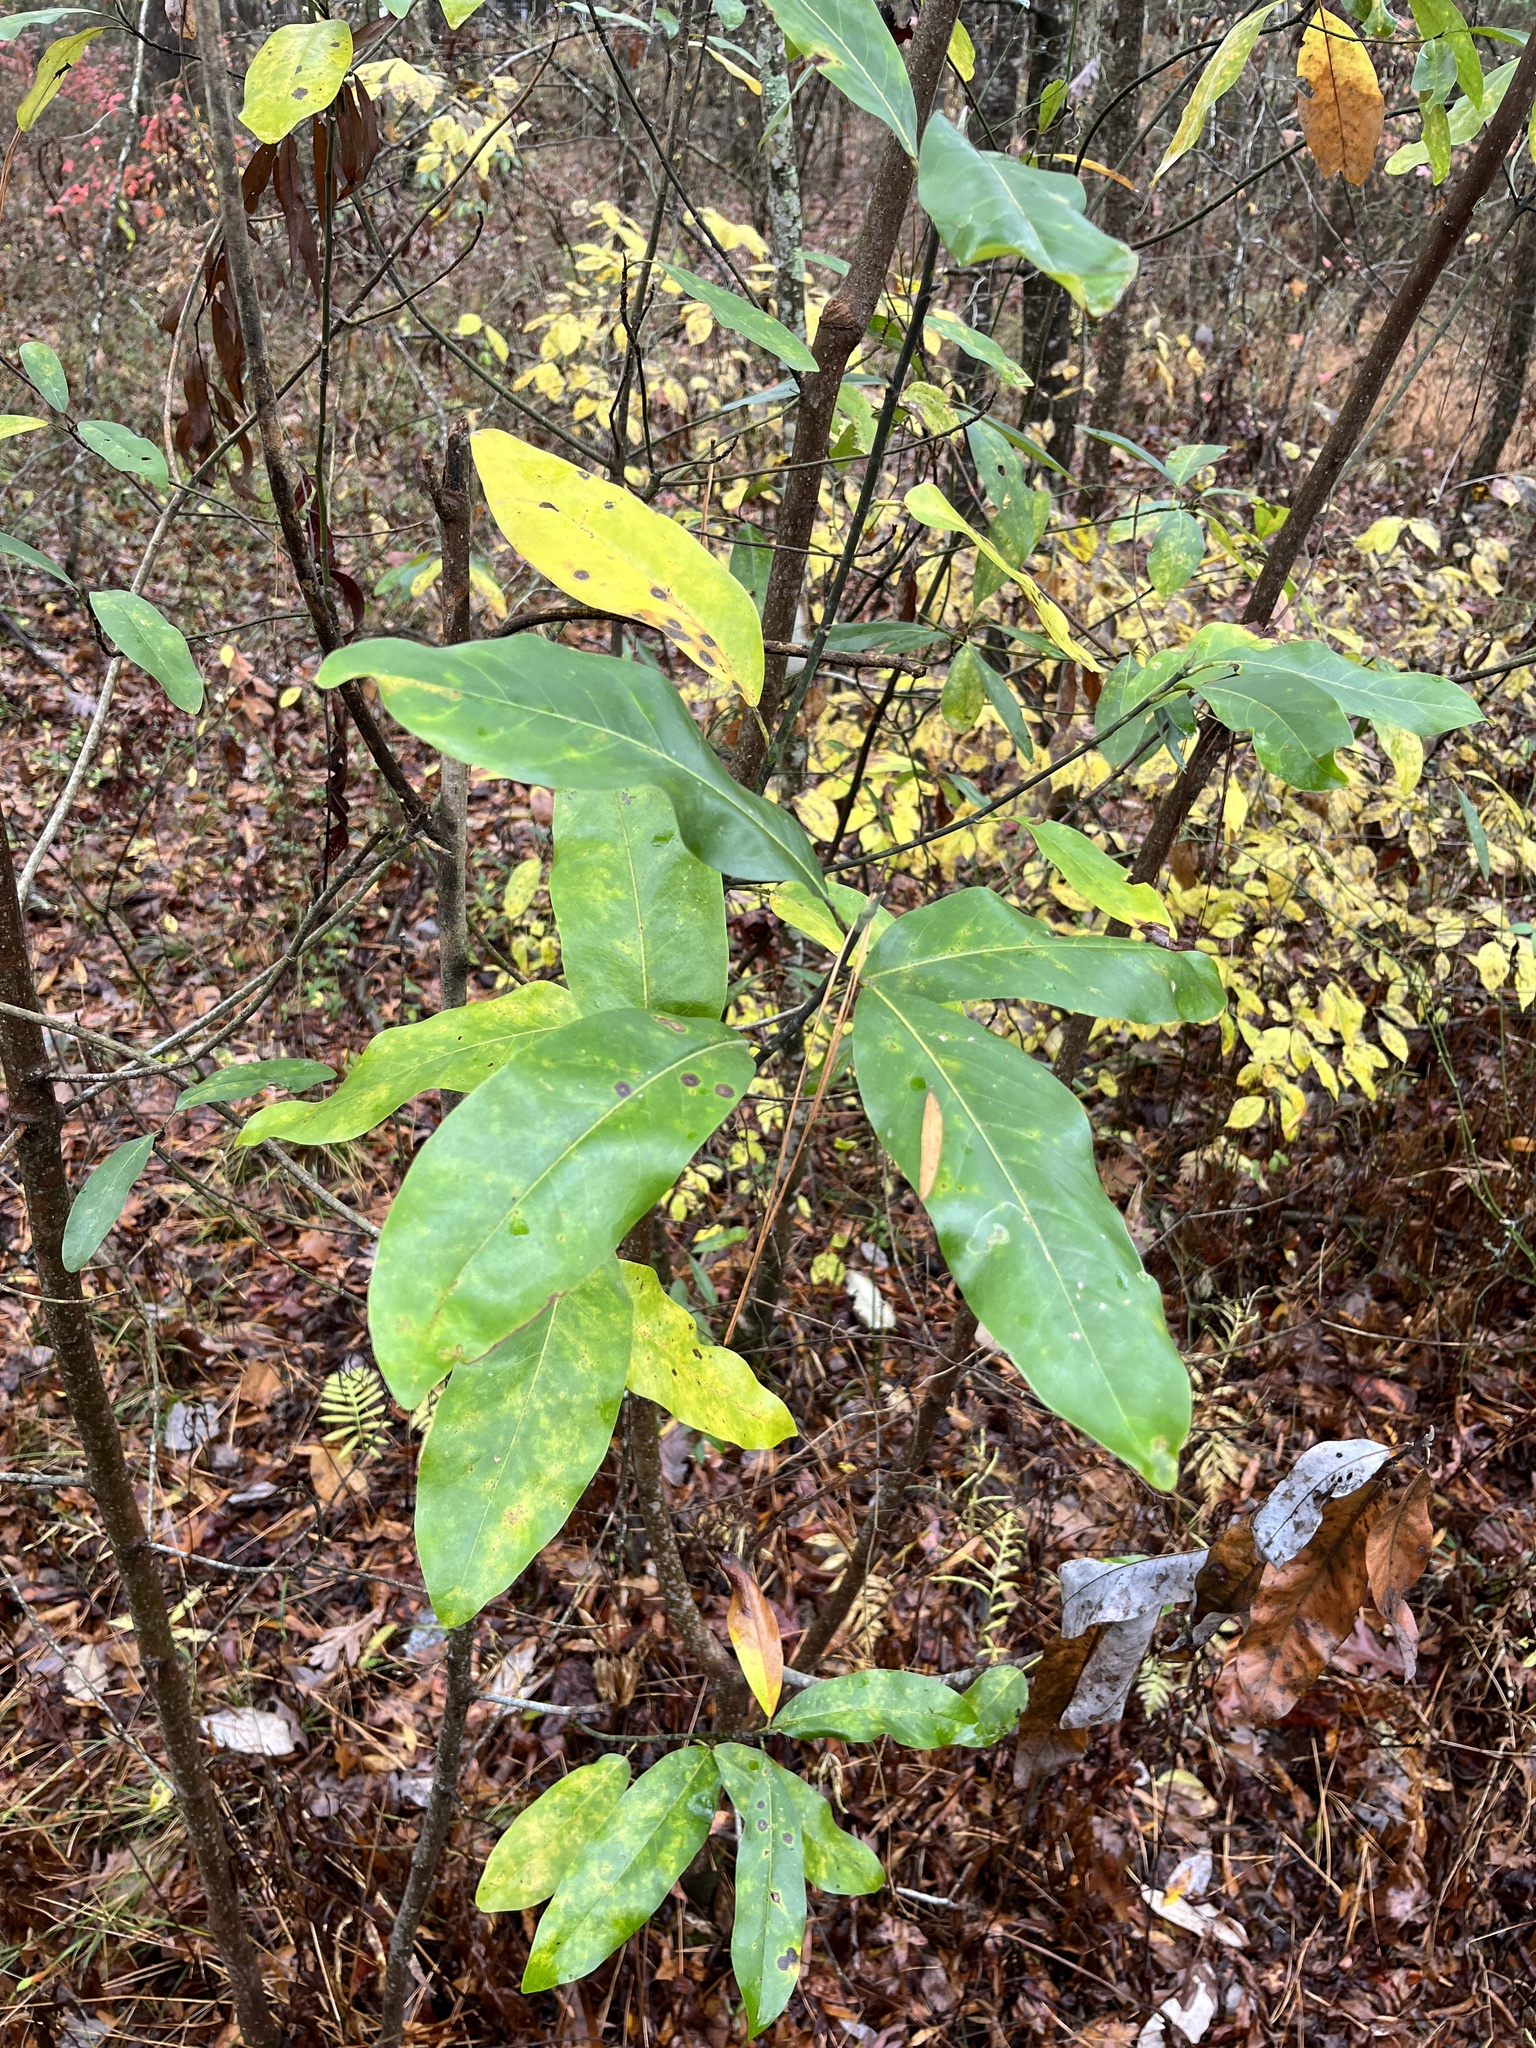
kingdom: Plantae
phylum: Tracheophyta
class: Magnoliopsida
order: Magnoliales
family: Magnoliaceae
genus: Magnolia
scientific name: Magnolia virginiana
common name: Swamp bay
